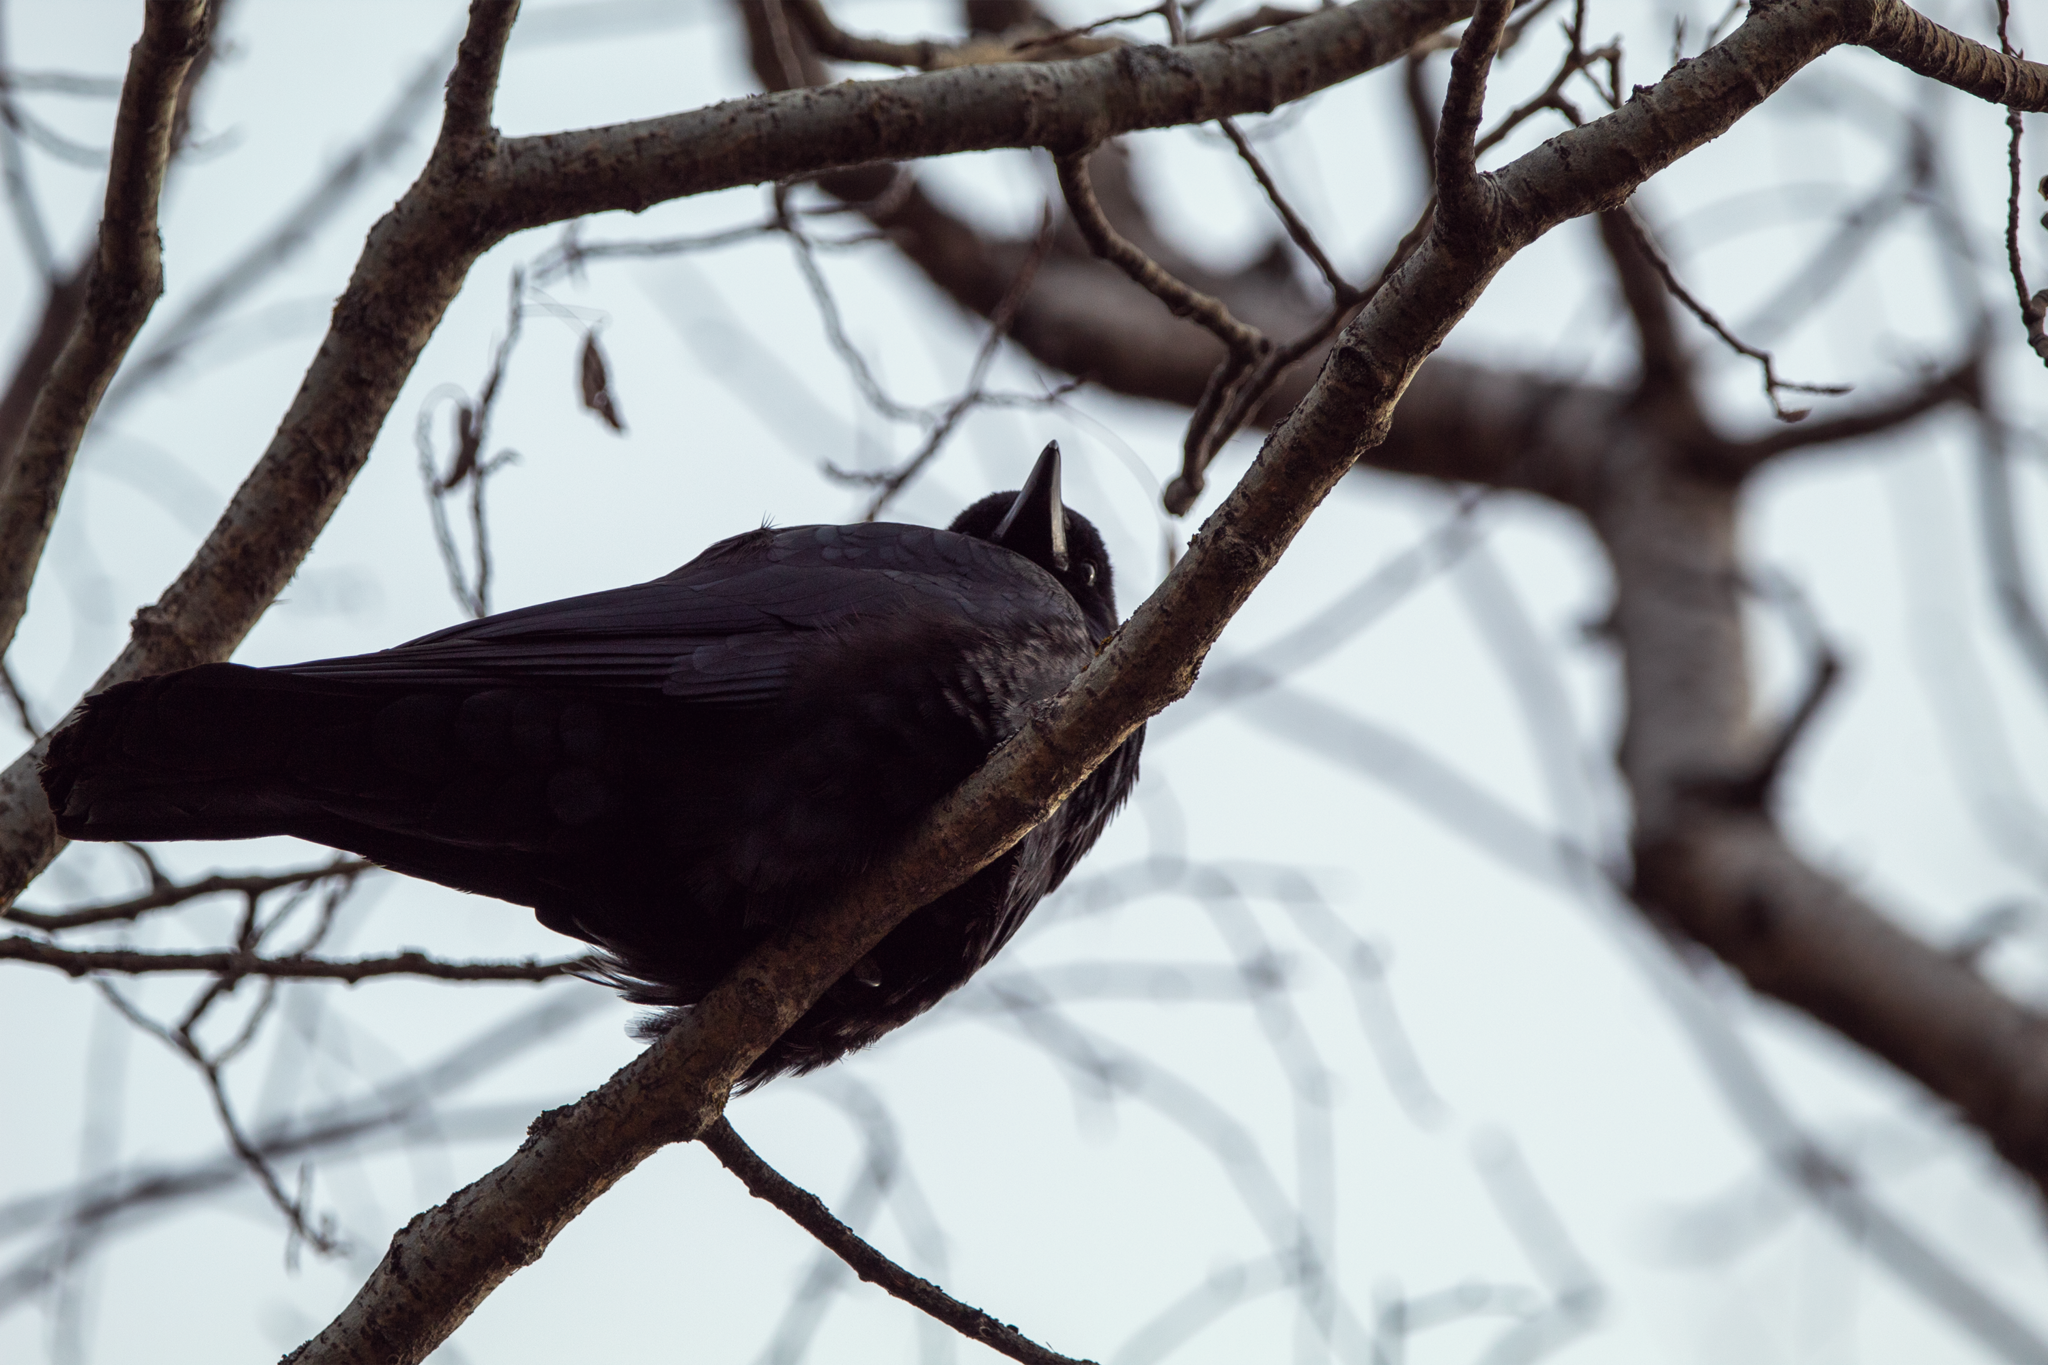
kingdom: Animalia
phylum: Chordata
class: Aves
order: Passeriformes
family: Corvidae
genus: Corvus
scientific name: Corvus brachyrhynchos
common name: American crow
